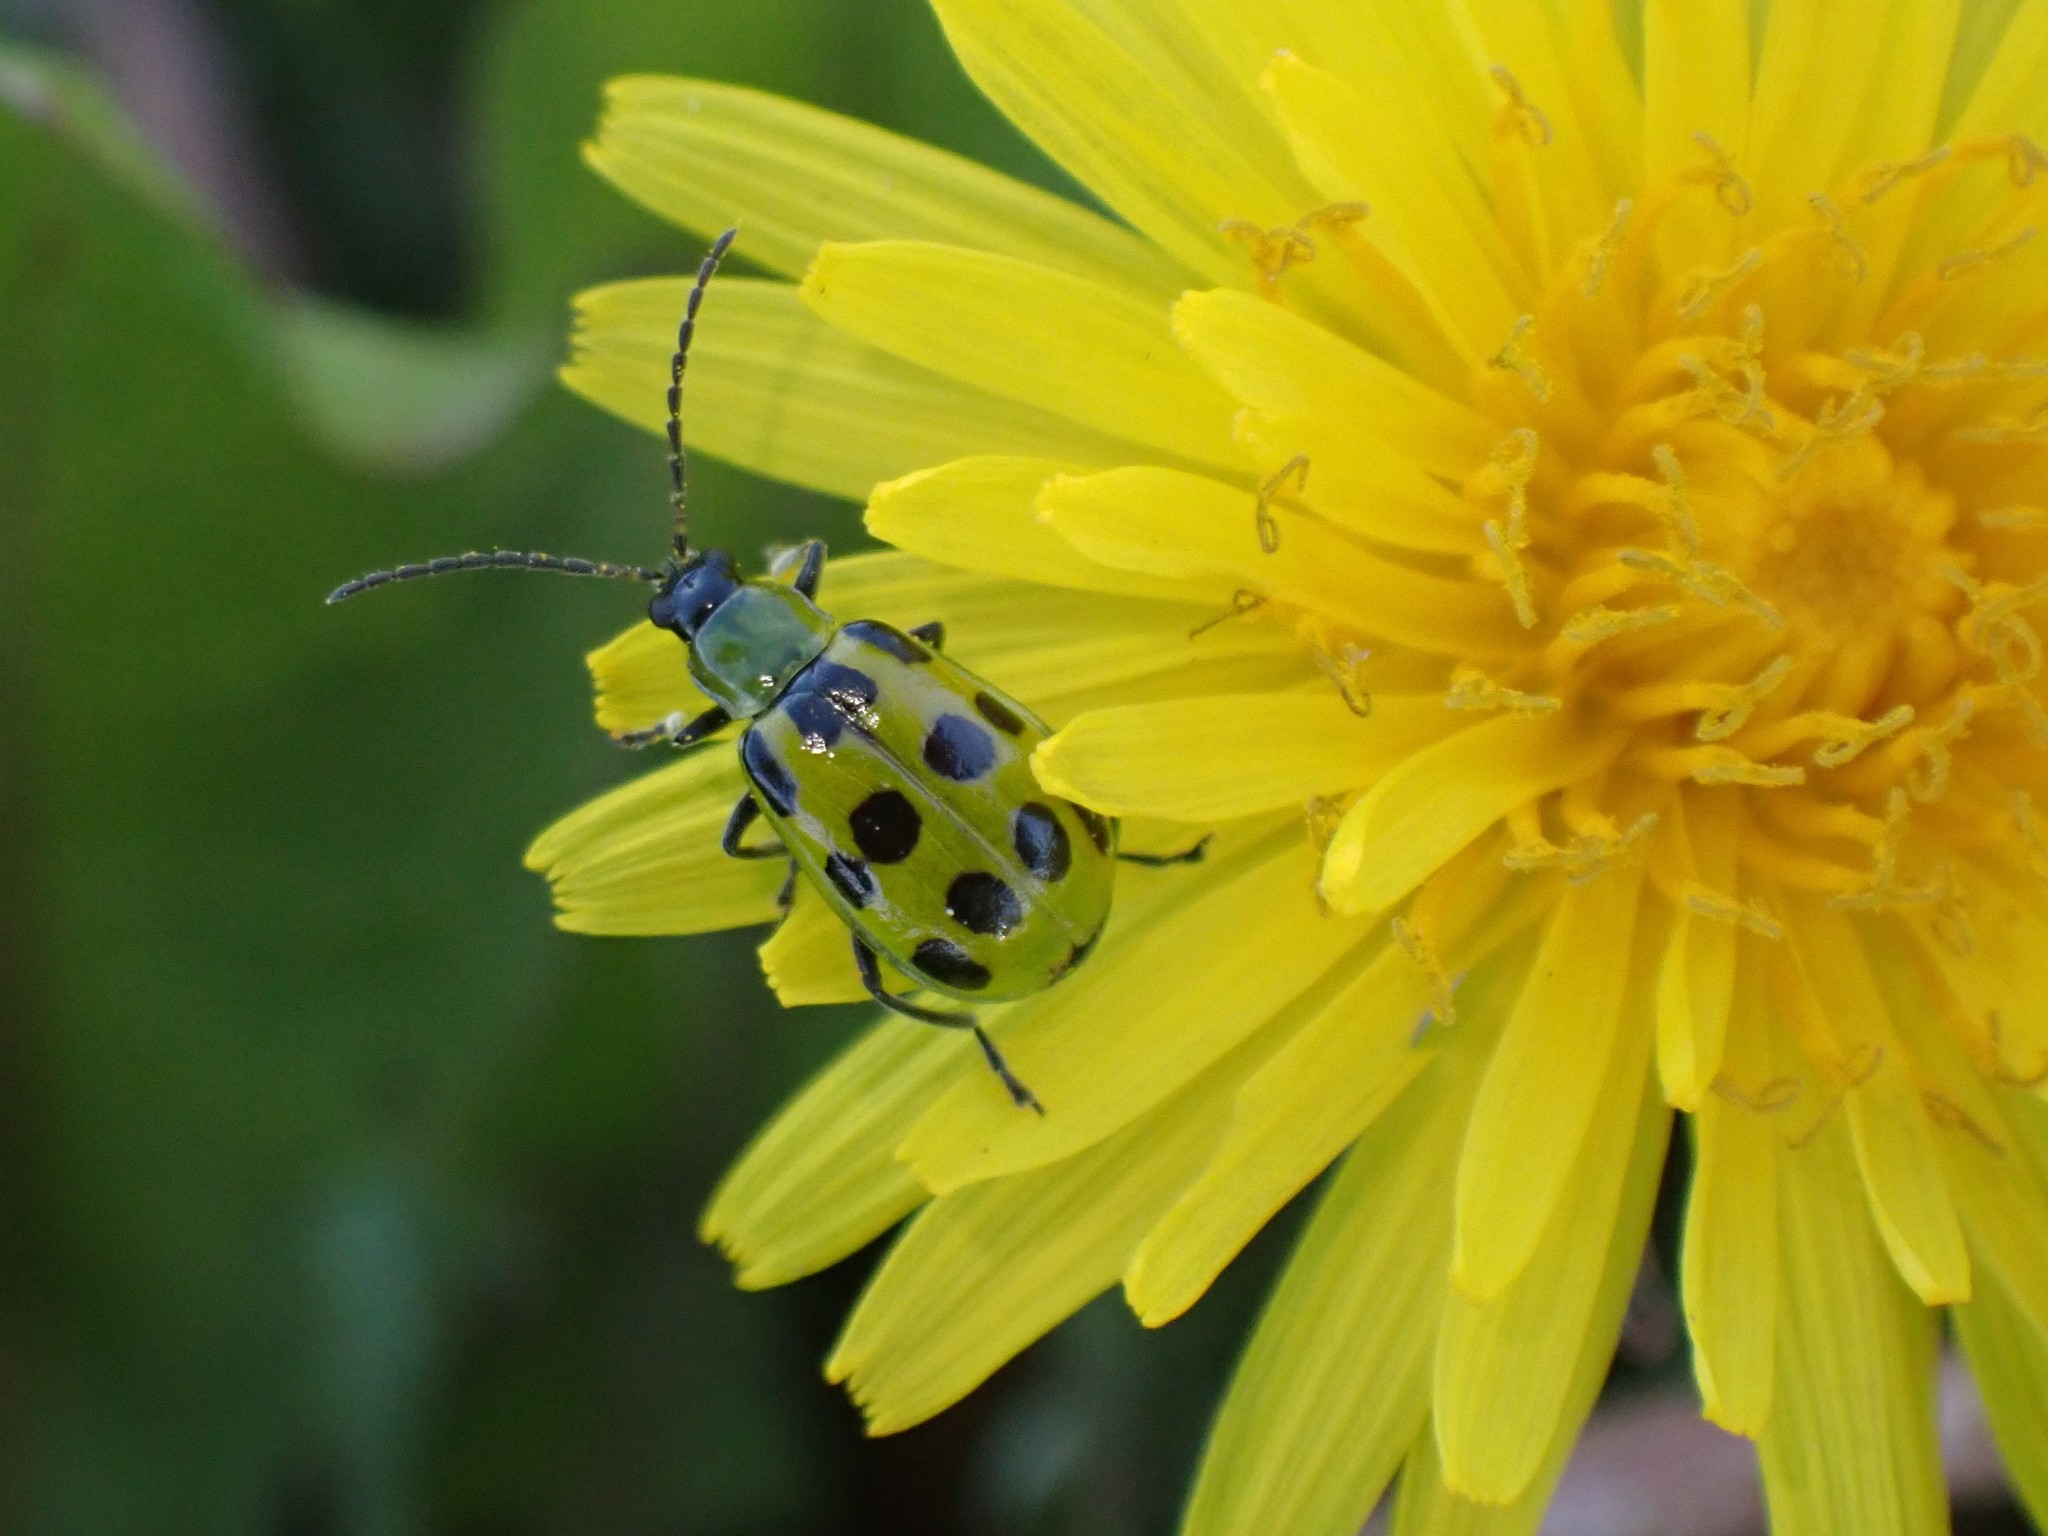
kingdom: Animalia
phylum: Arthropoda
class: Insecta
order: Coleoptera
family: Chrysomelidae
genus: Diabrotica
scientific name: Diabrotica undecimpunctata
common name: Spotted cucumber beetle
